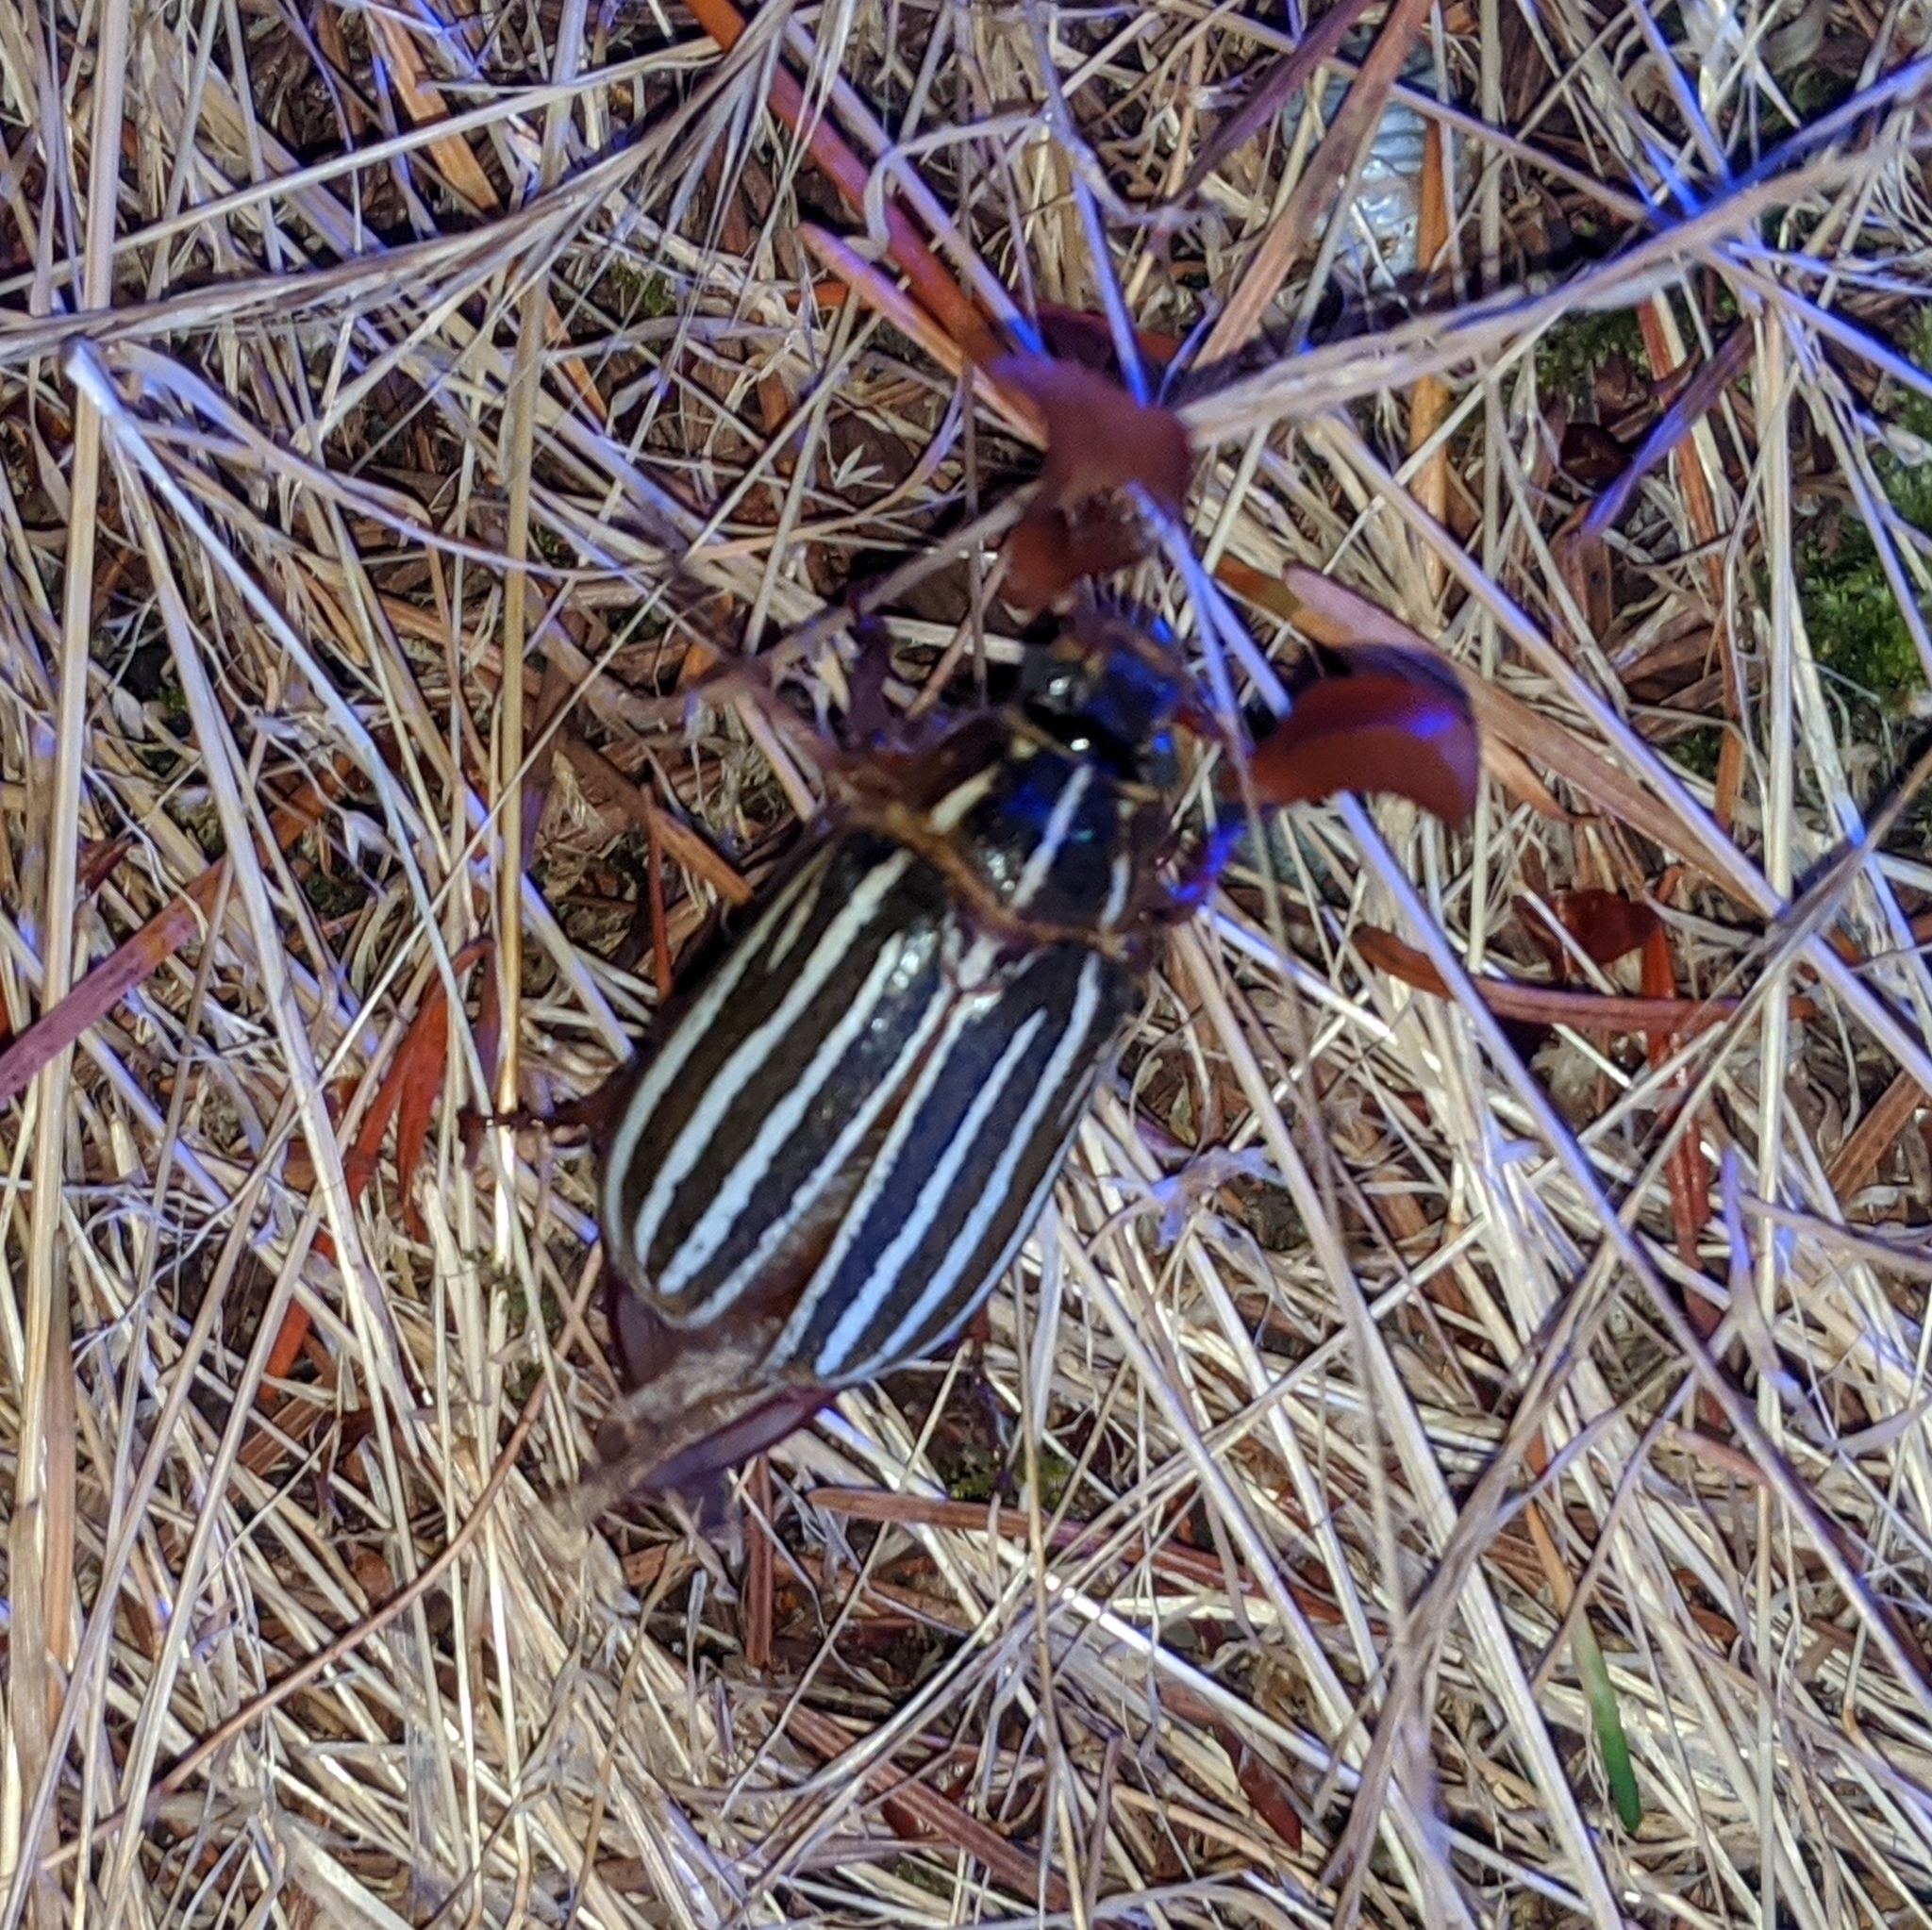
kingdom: Animalia
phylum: Arthropoda
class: Insecta
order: Coleoptera
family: Scarabaeidae
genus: Polyphylla
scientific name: Polyphylla crinita
